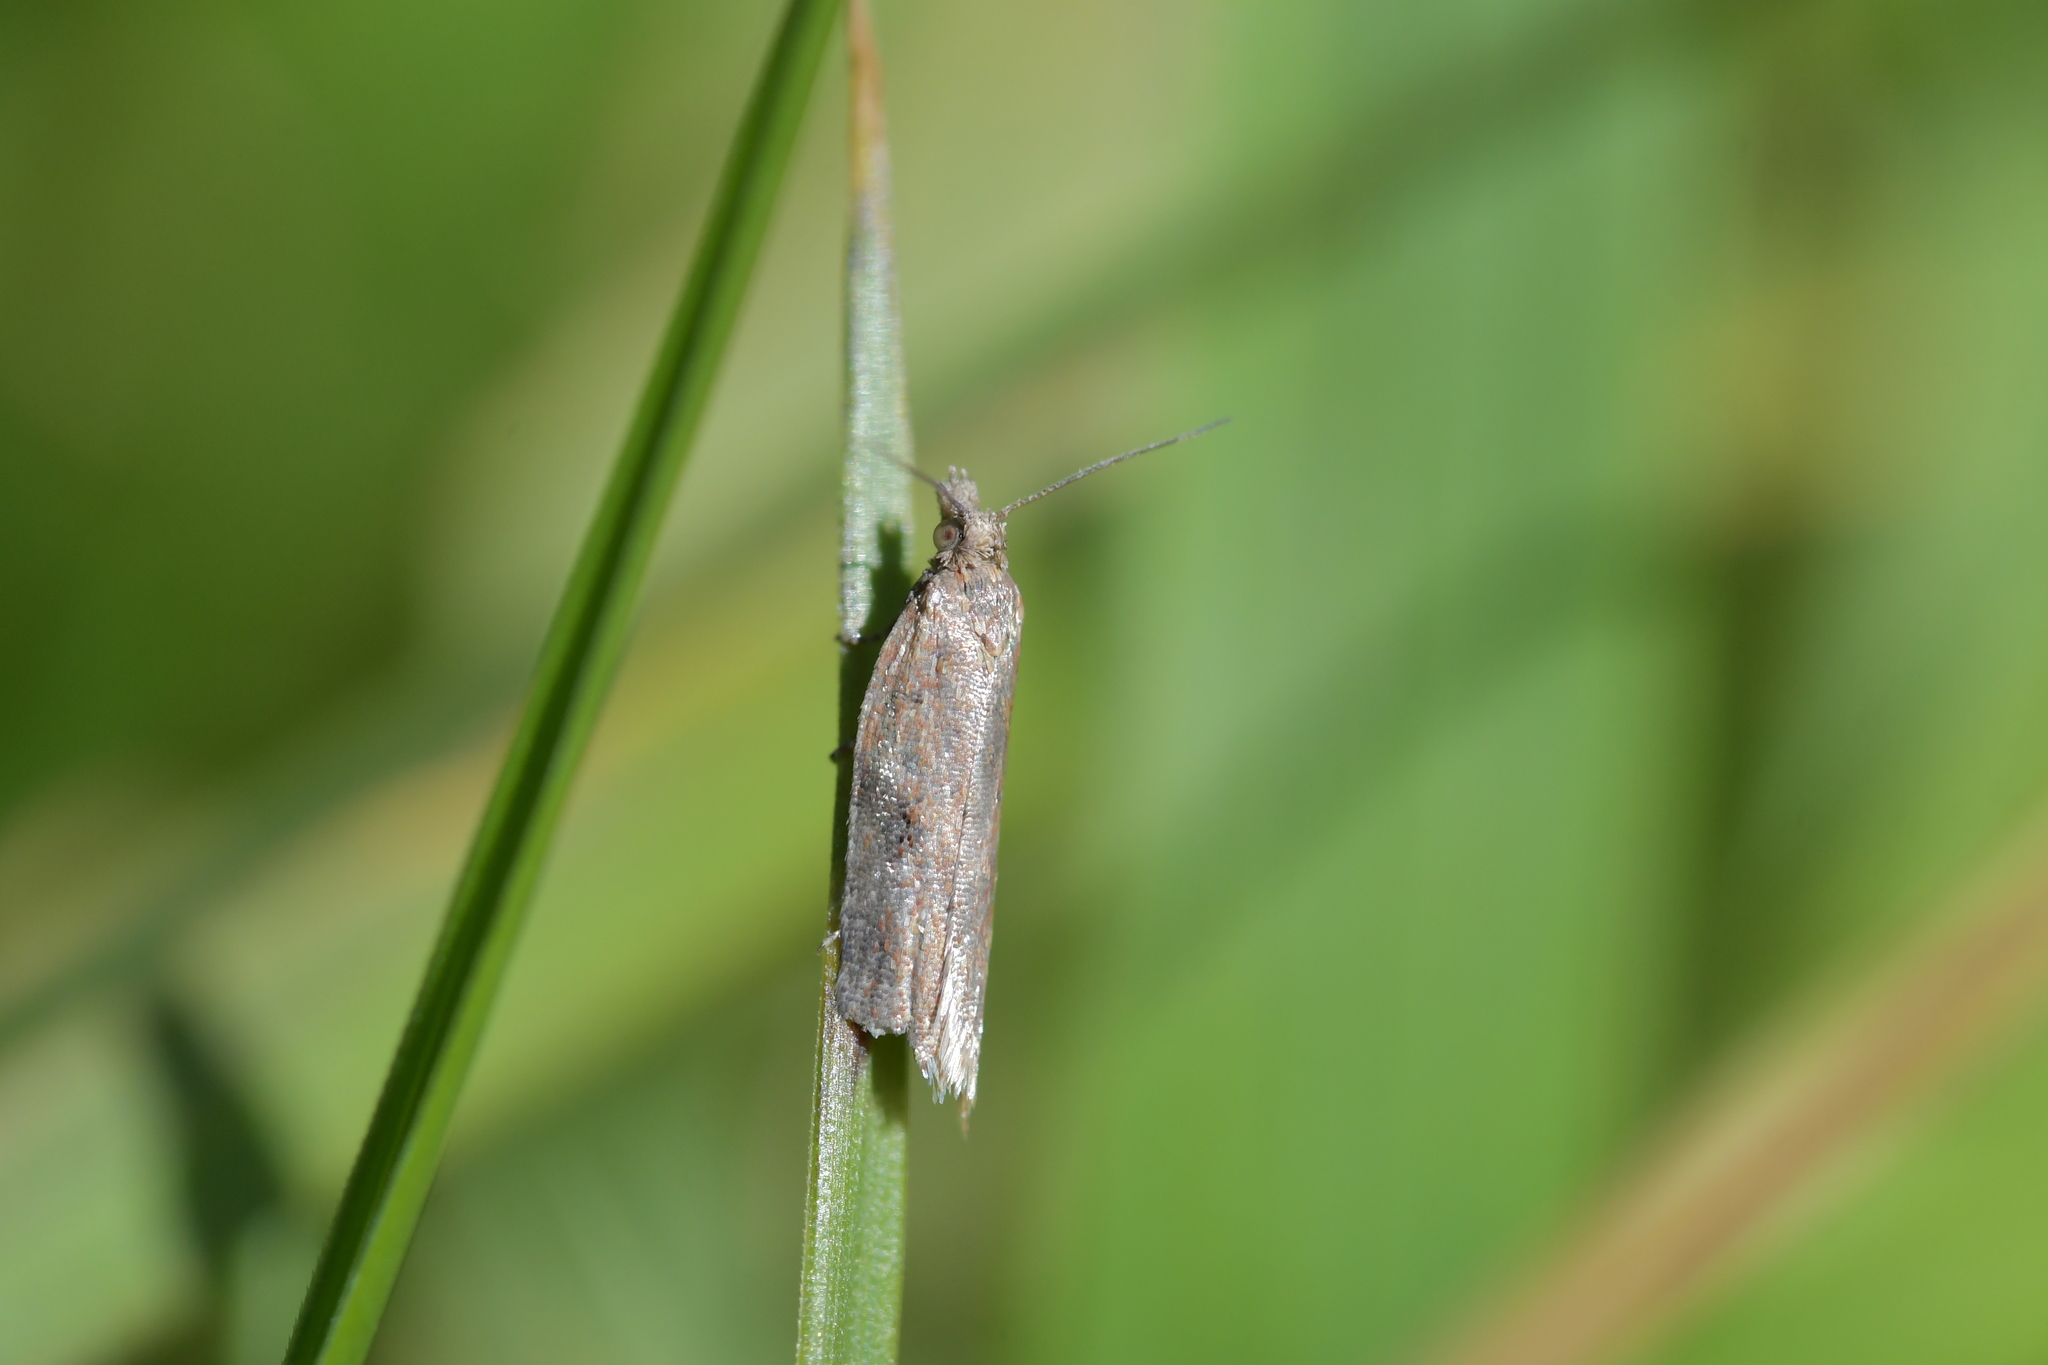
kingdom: Animalia
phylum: Arthropoda
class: Insecta
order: Lepidoptera
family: Tortricidae
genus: Capua
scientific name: Capua semiferana
